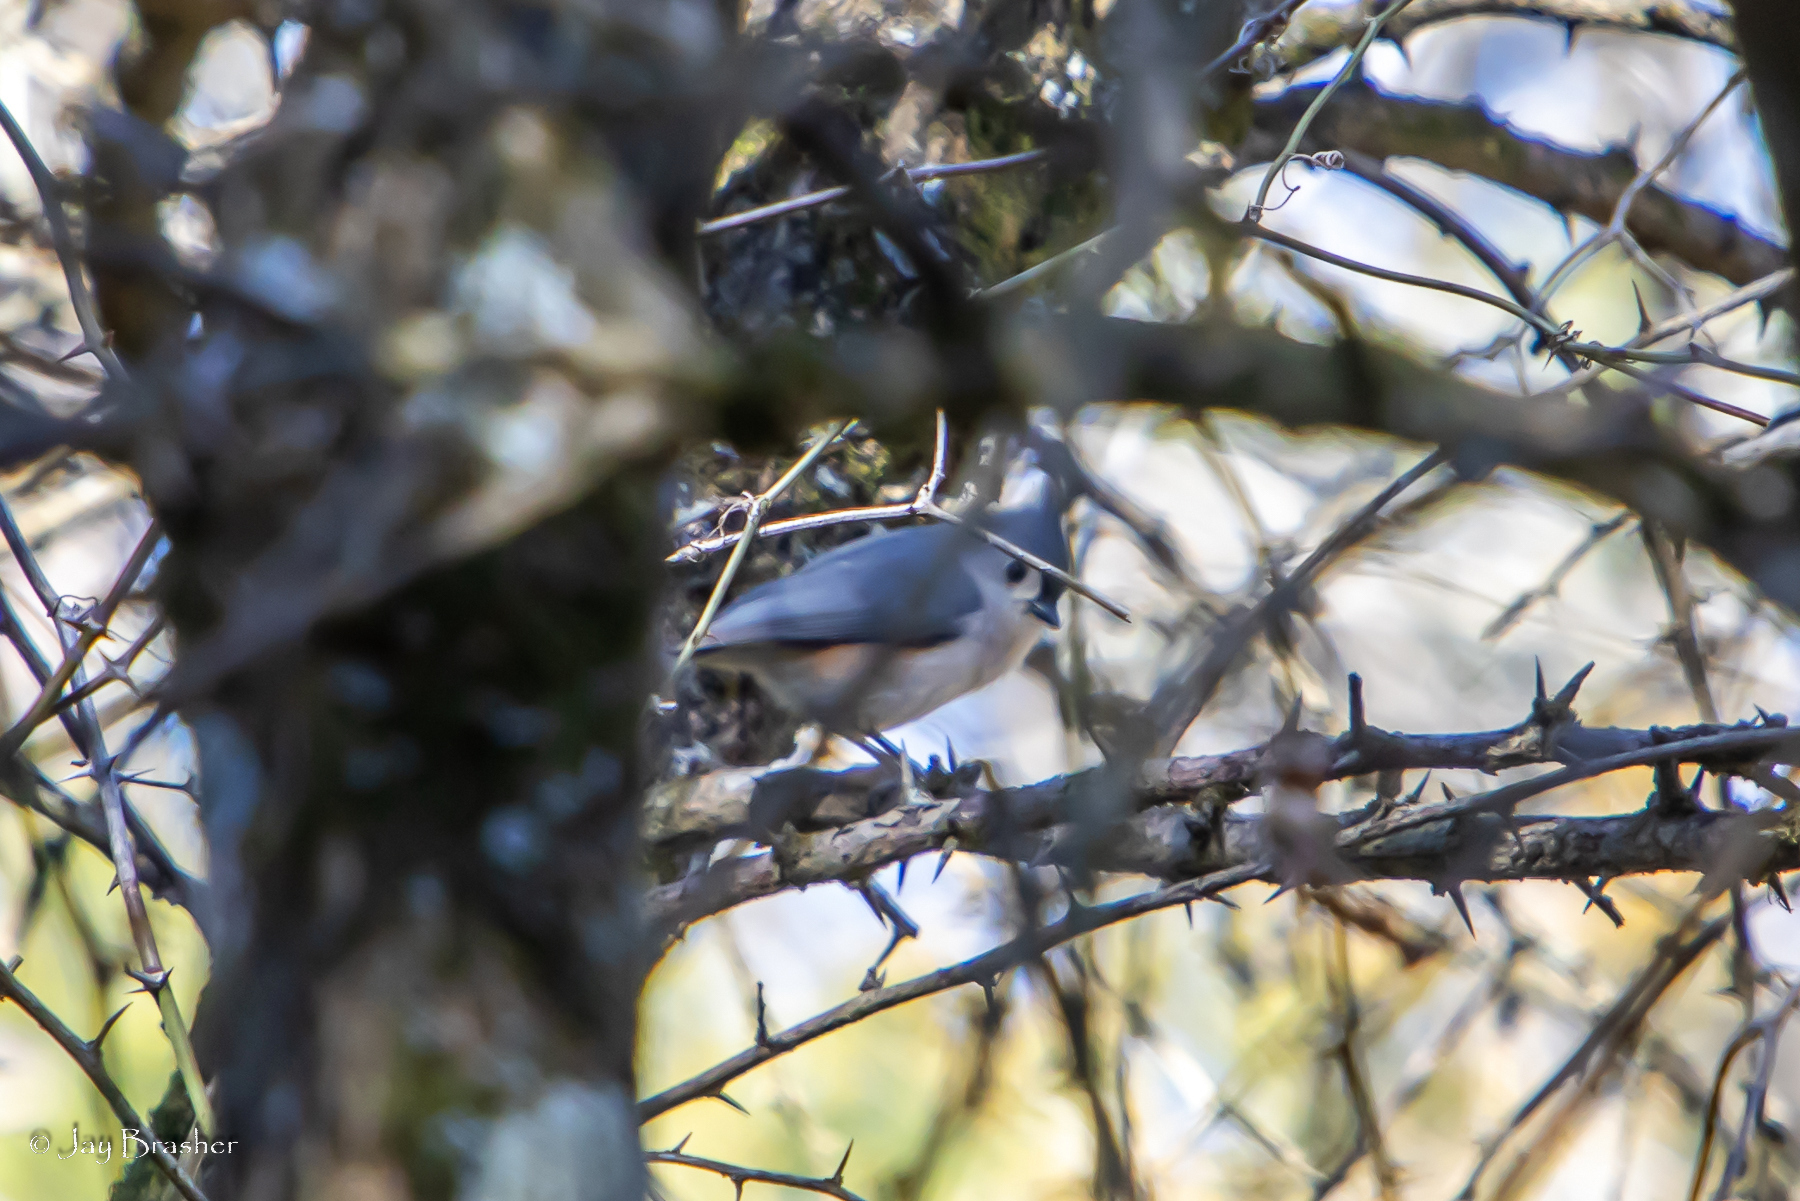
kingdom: Animalia
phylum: Chordata
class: Aves
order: Passeriformes
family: Paridae
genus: Baeolophus
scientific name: Baeolophus bicolor
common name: Tufted titmouse
